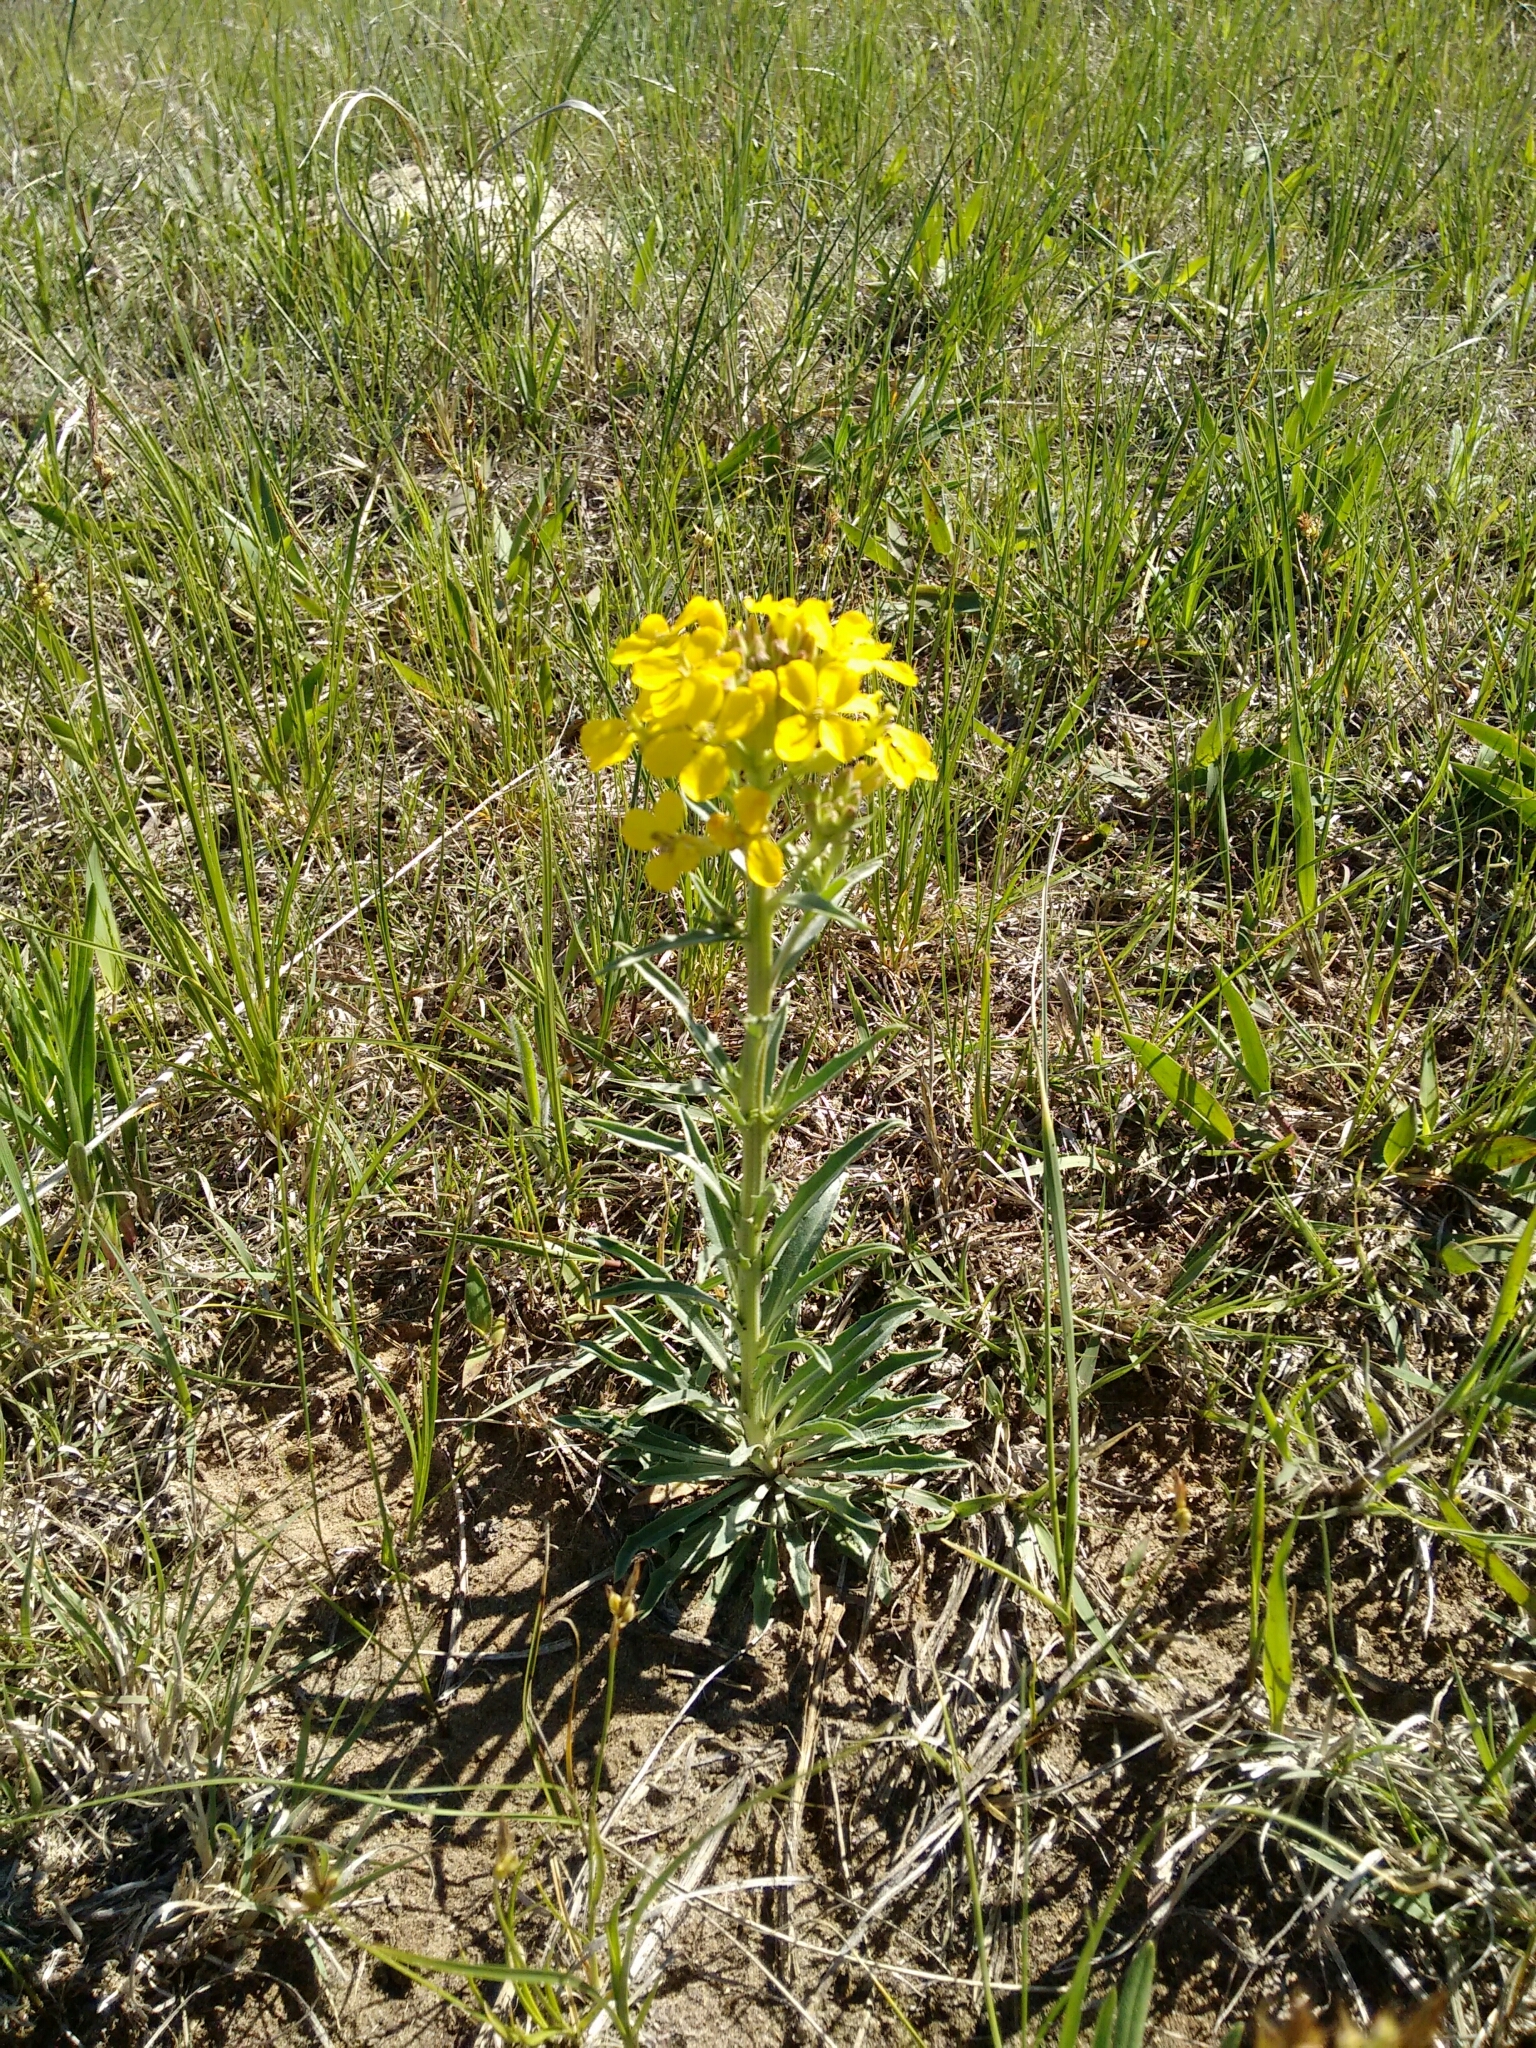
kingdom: Plantae
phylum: Tracheophyta
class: Magnoliopsida
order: Brassicales
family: Brassicaceae
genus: Erysimum
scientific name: Erysimum asperum
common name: Western wallflower
